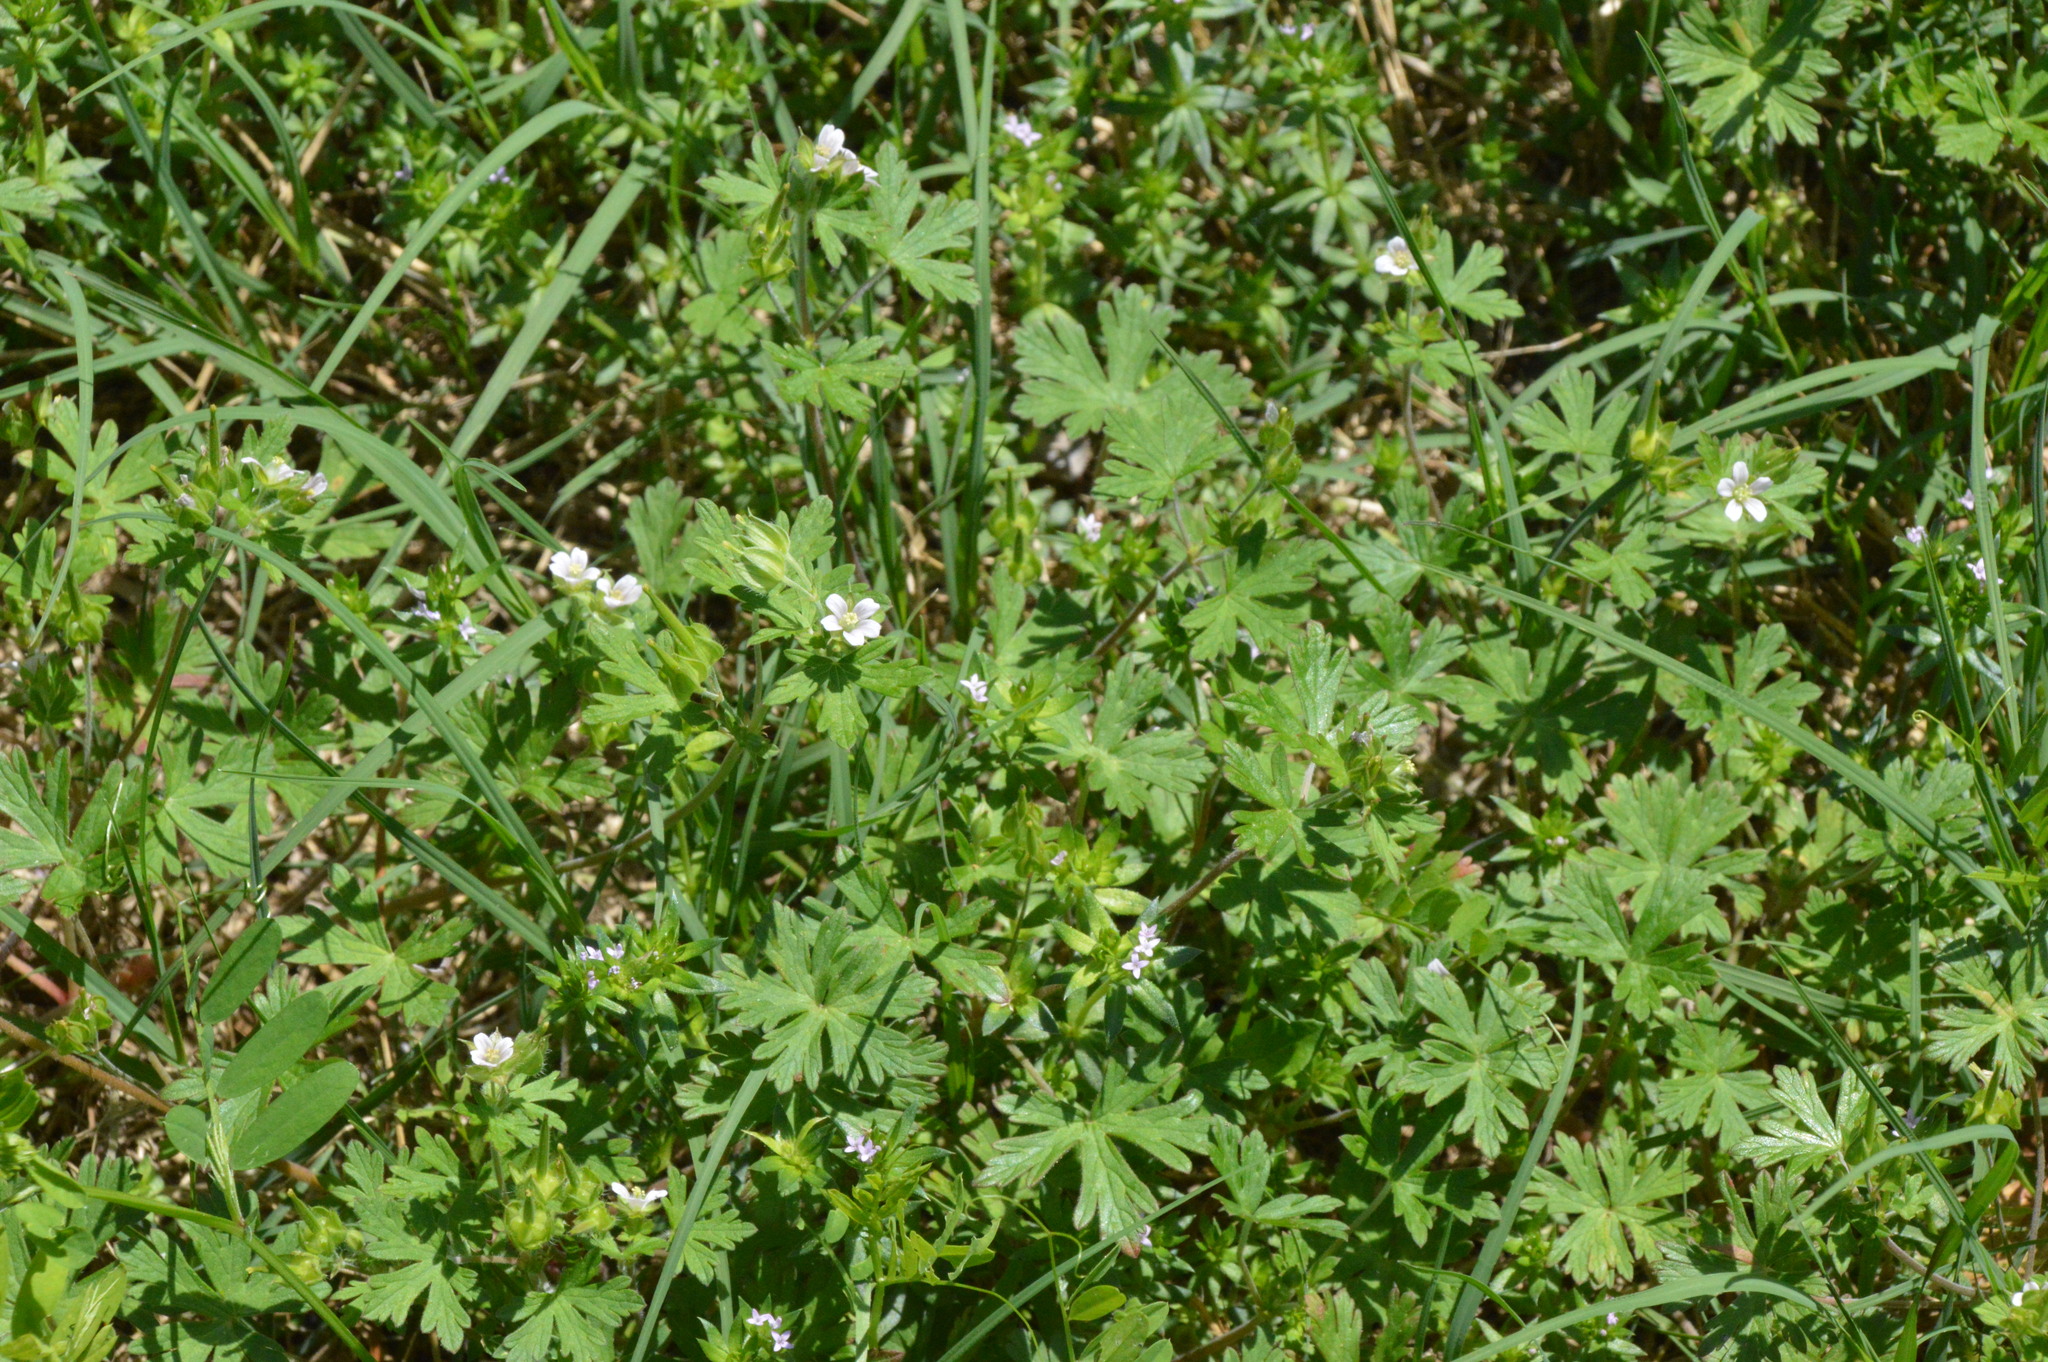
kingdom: Plantae
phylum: Tracheophyta
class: Magnoliopsida
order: Geraniales
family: Geraniaceae
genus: Geranium
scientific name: Geranium carolinianum
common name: Carolina crane's-bill
